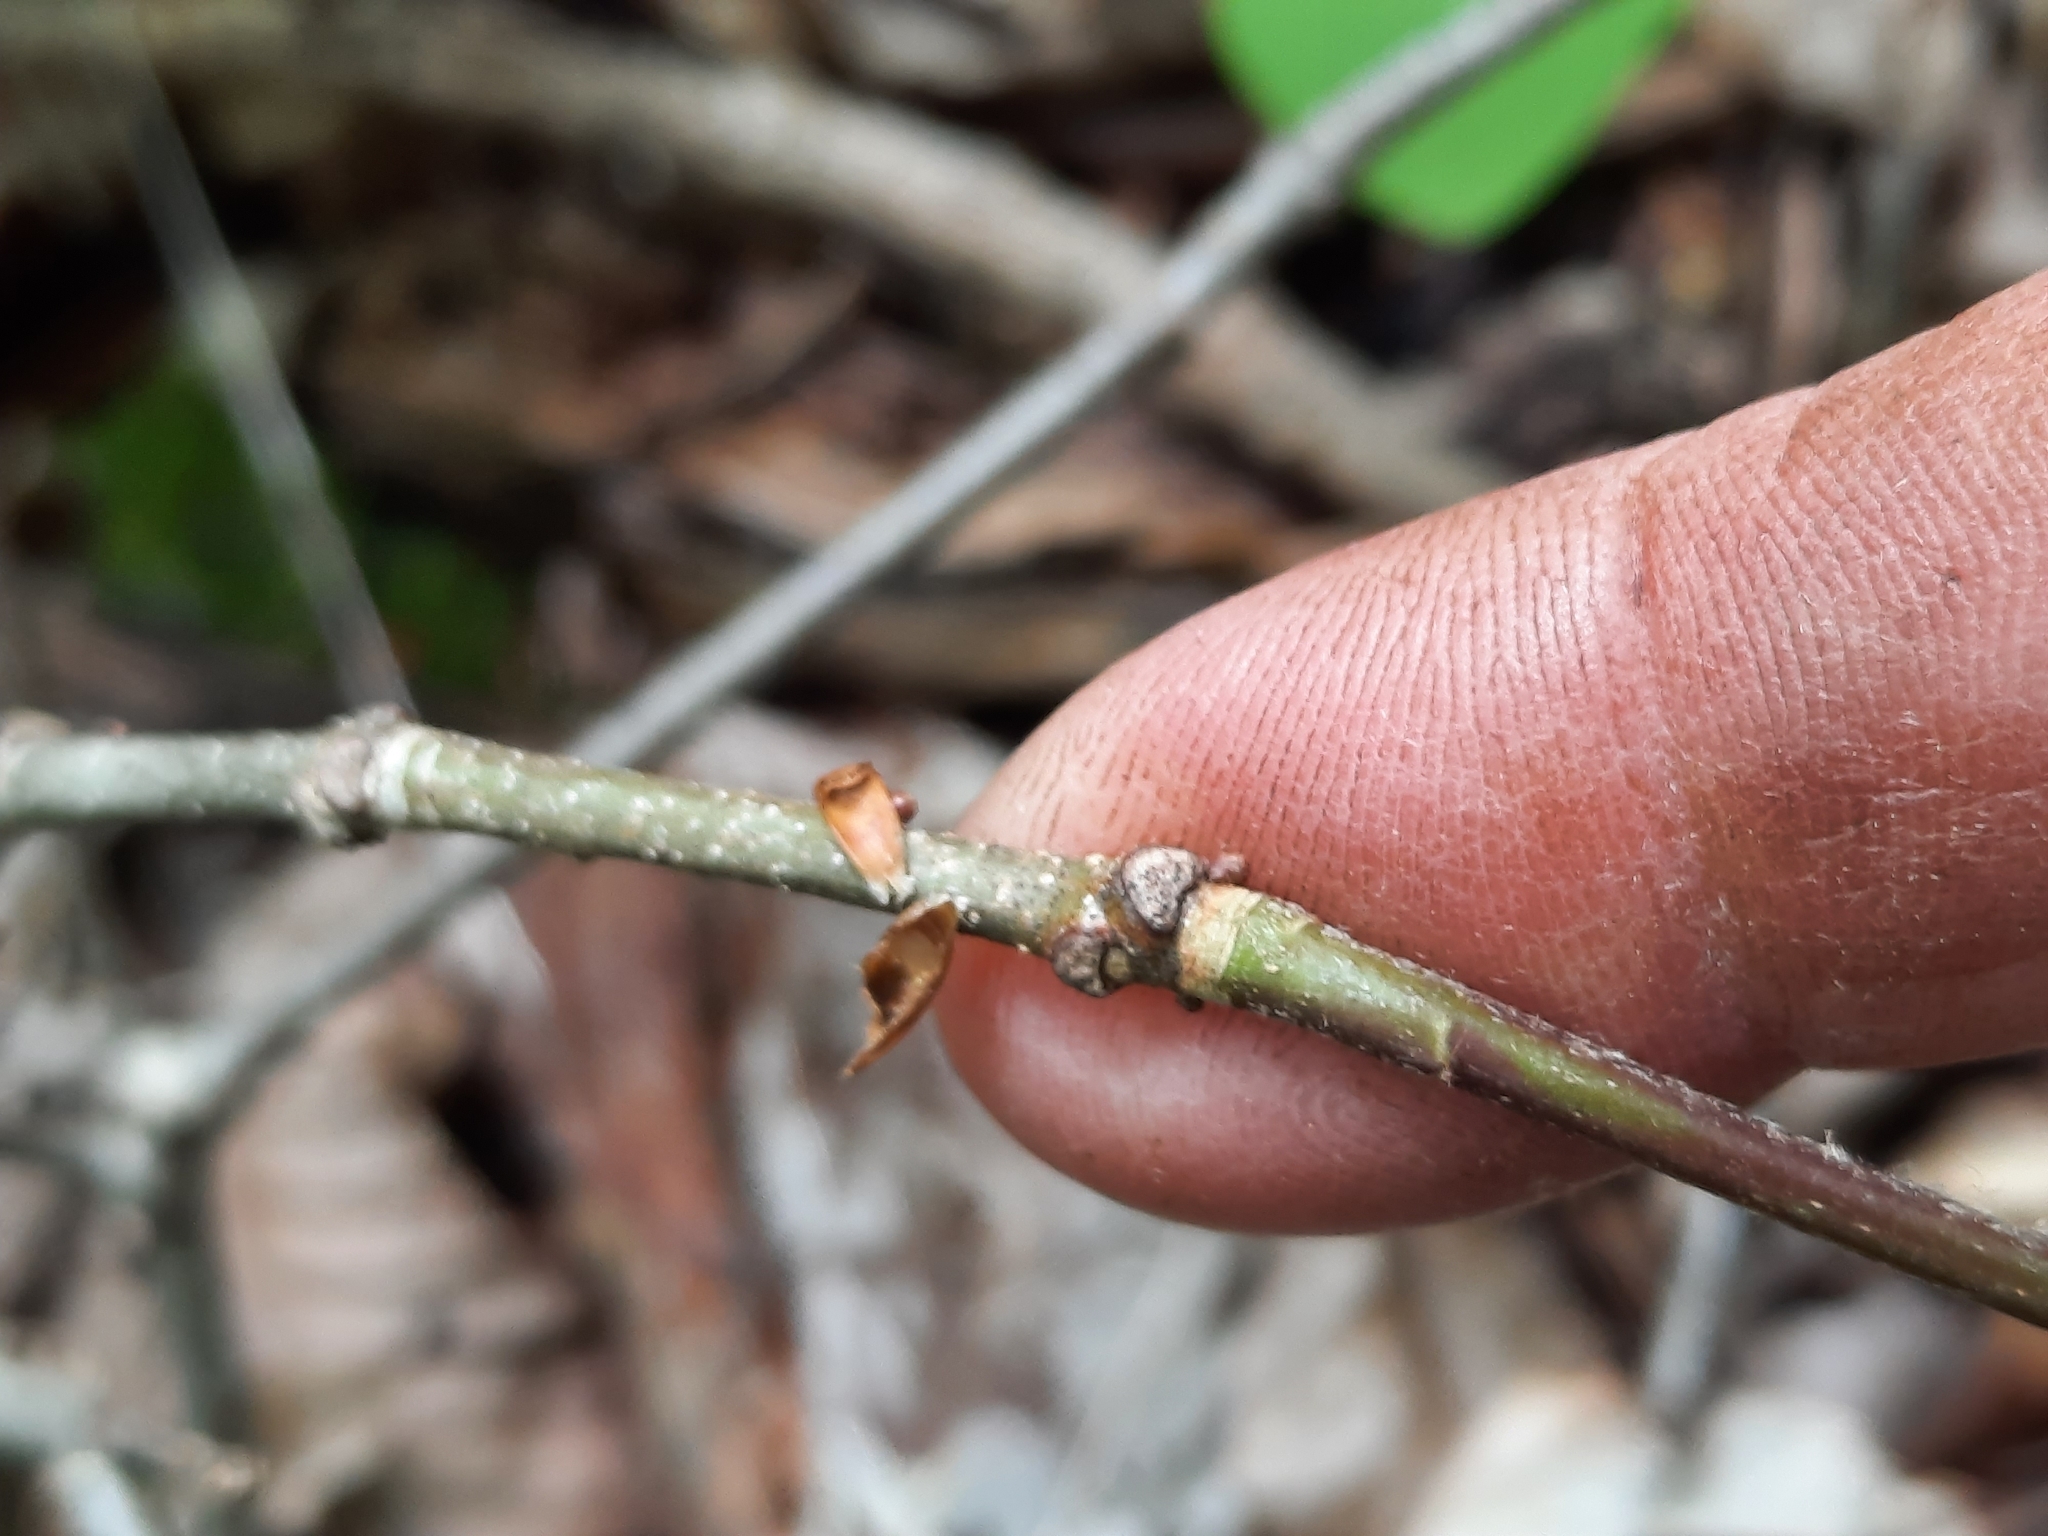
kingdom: Plantae
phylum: Tracheophyta
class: Magnoliopsida
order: Fagales
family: Fagaceae
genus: Quercus
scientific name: Quercus montana
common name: Chestnut oak
